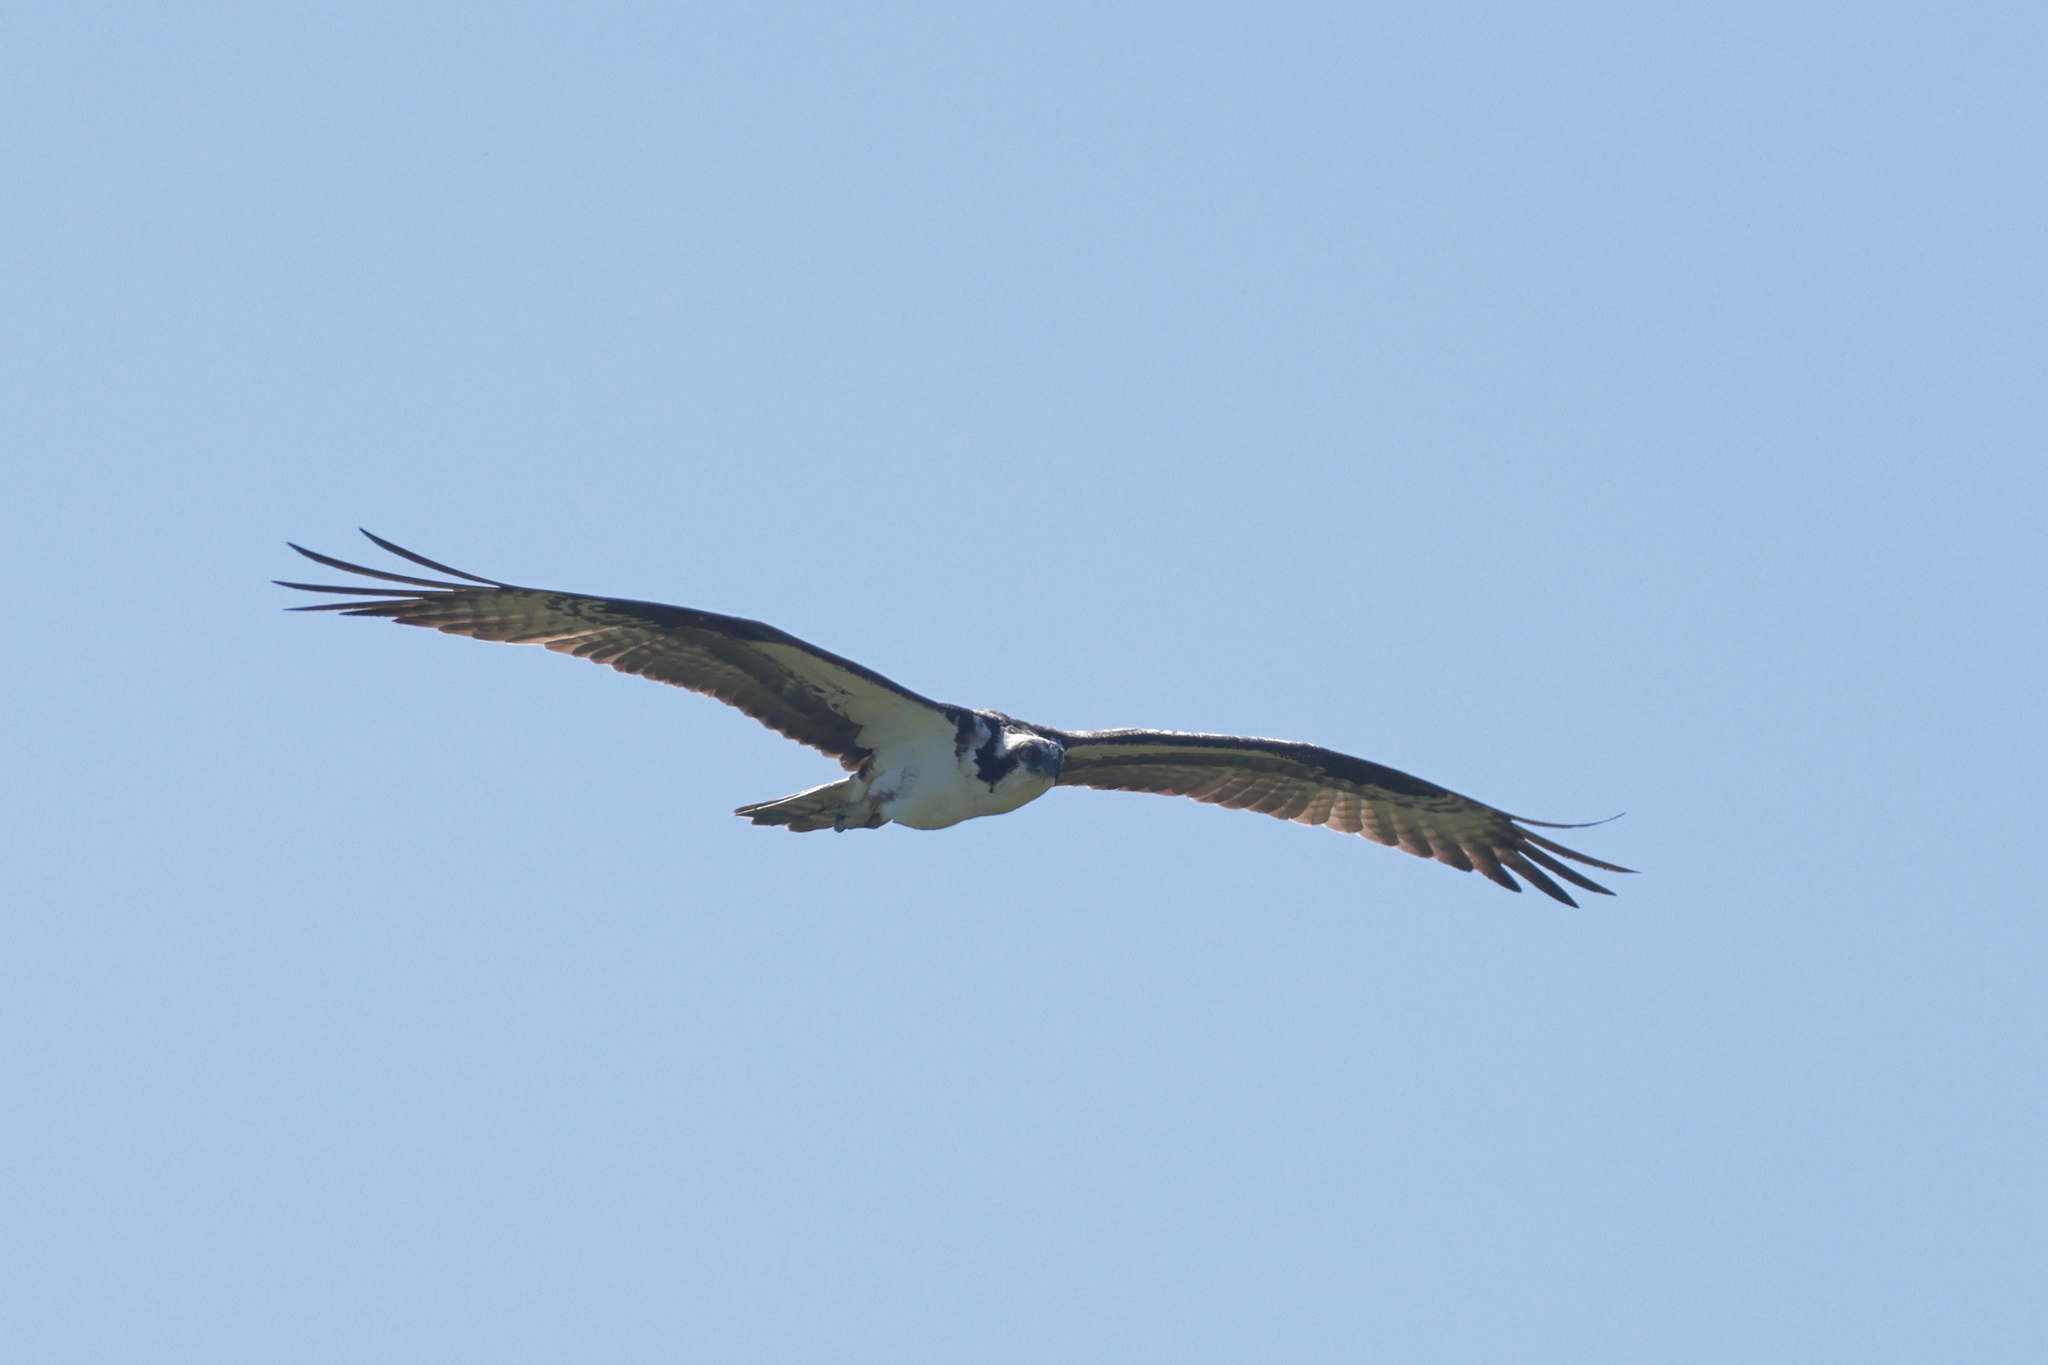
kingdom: Animalia
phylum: Chordata
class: Aves
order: Accipitriformes
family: Pandionidae
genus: Pandion
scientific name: Pandion haliaetus
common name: Osprey
